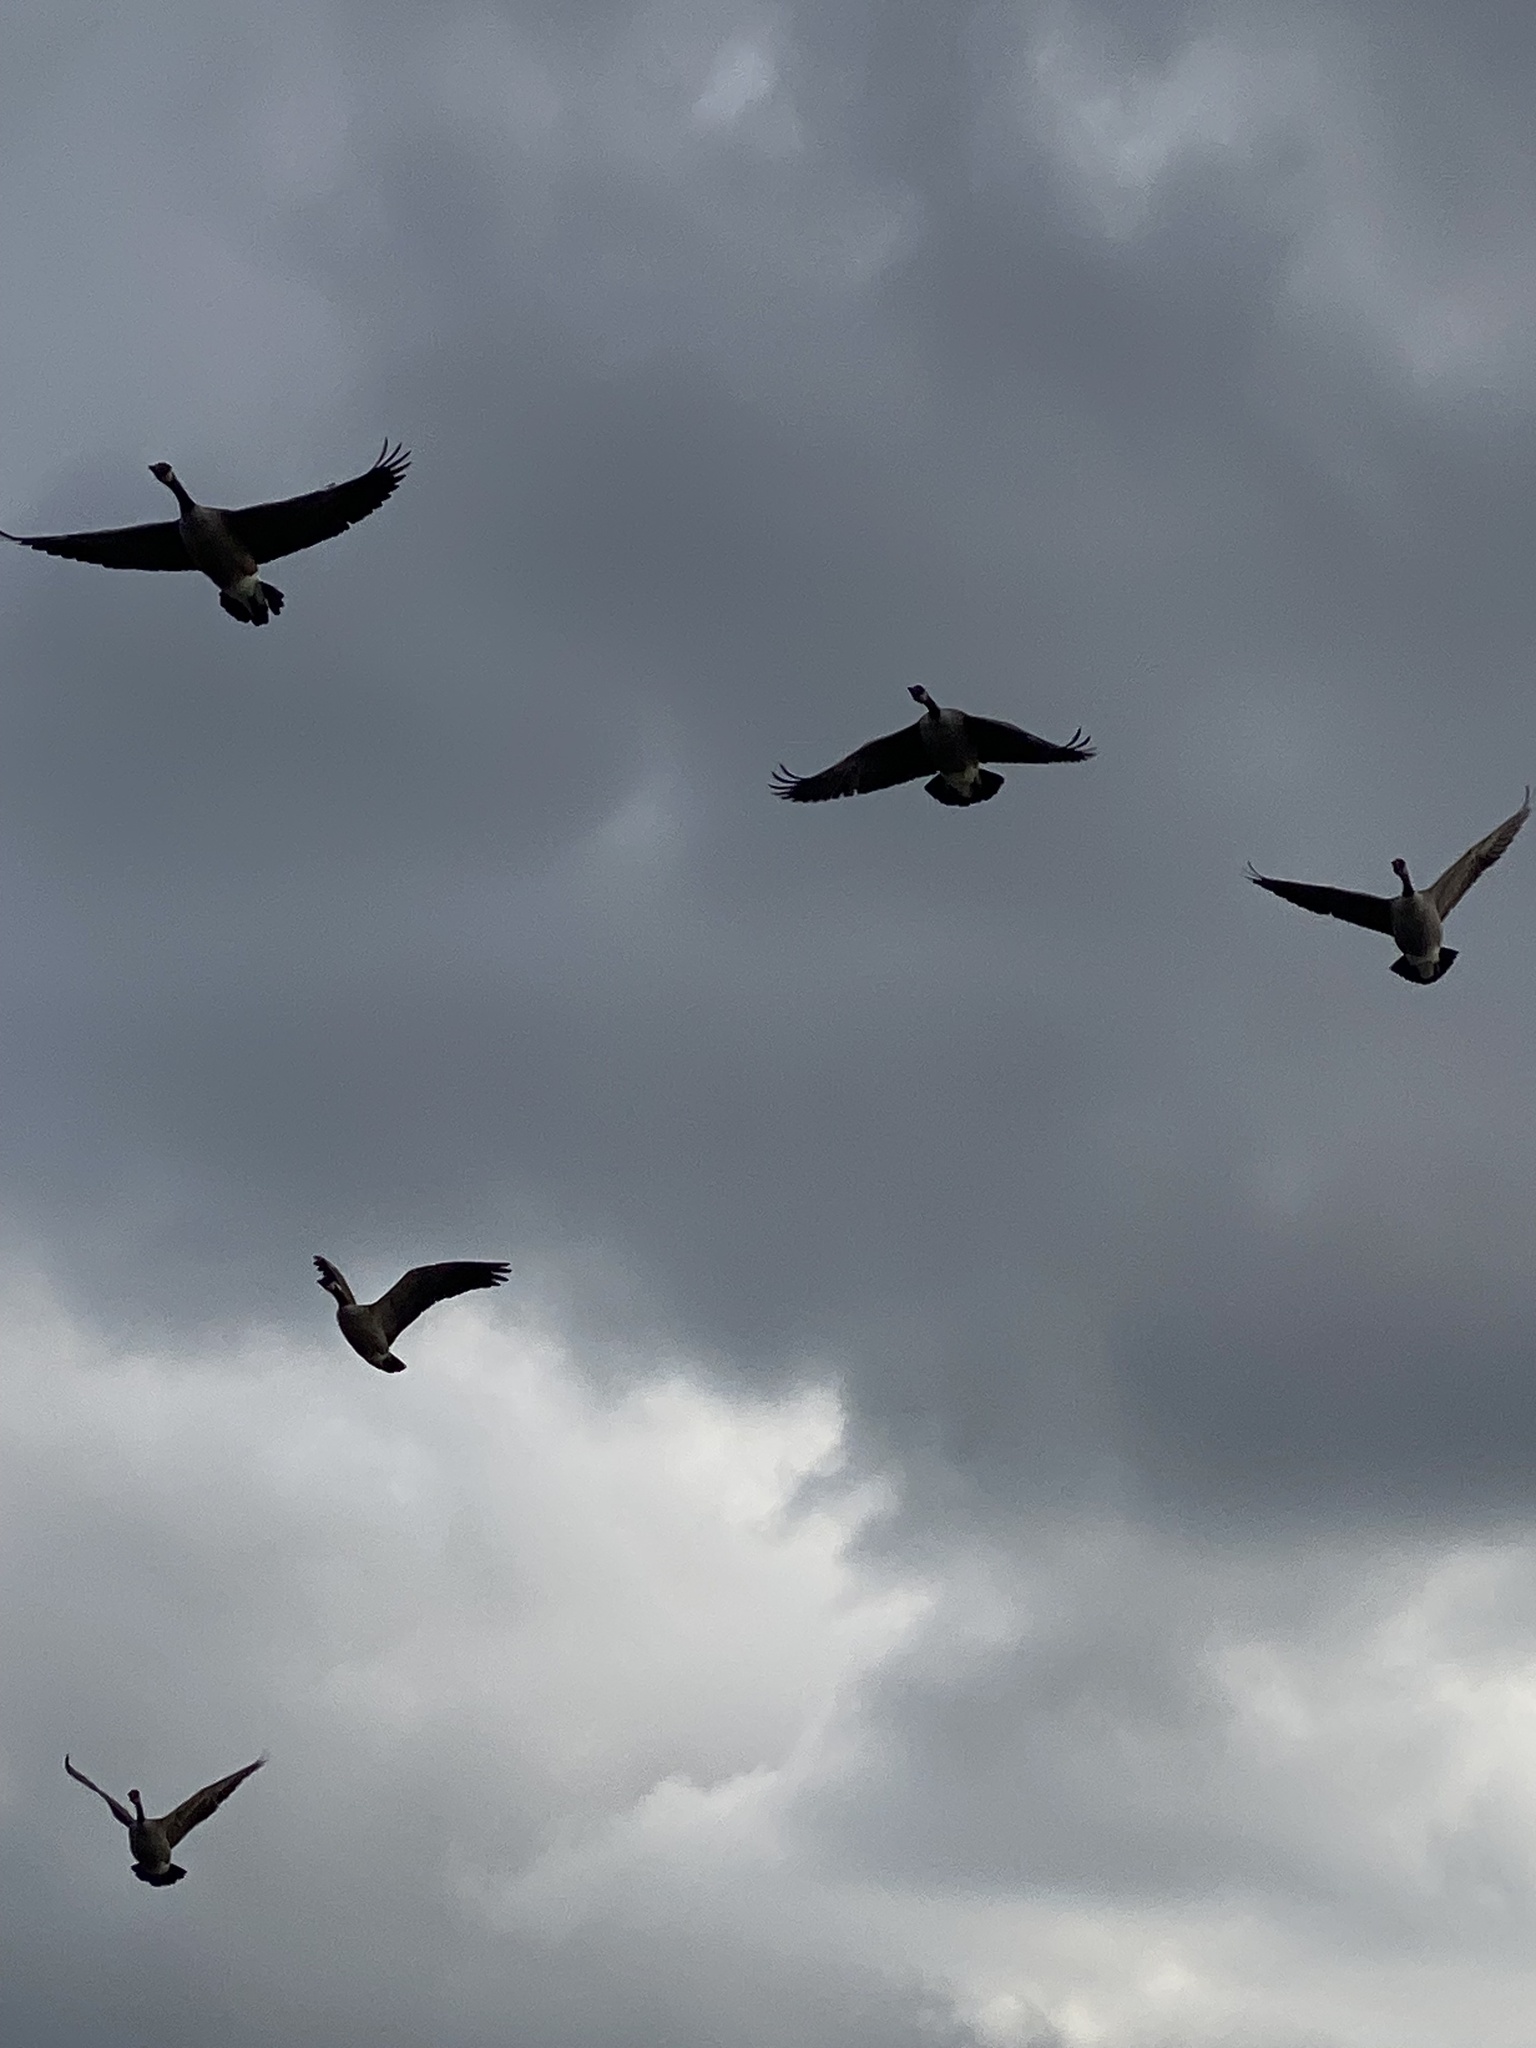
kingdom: Animalia
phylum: Chordata
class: Aves
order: Anseriformes
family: Anatidae
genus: Branta
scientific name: Branta canadensis
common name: Canada goose
